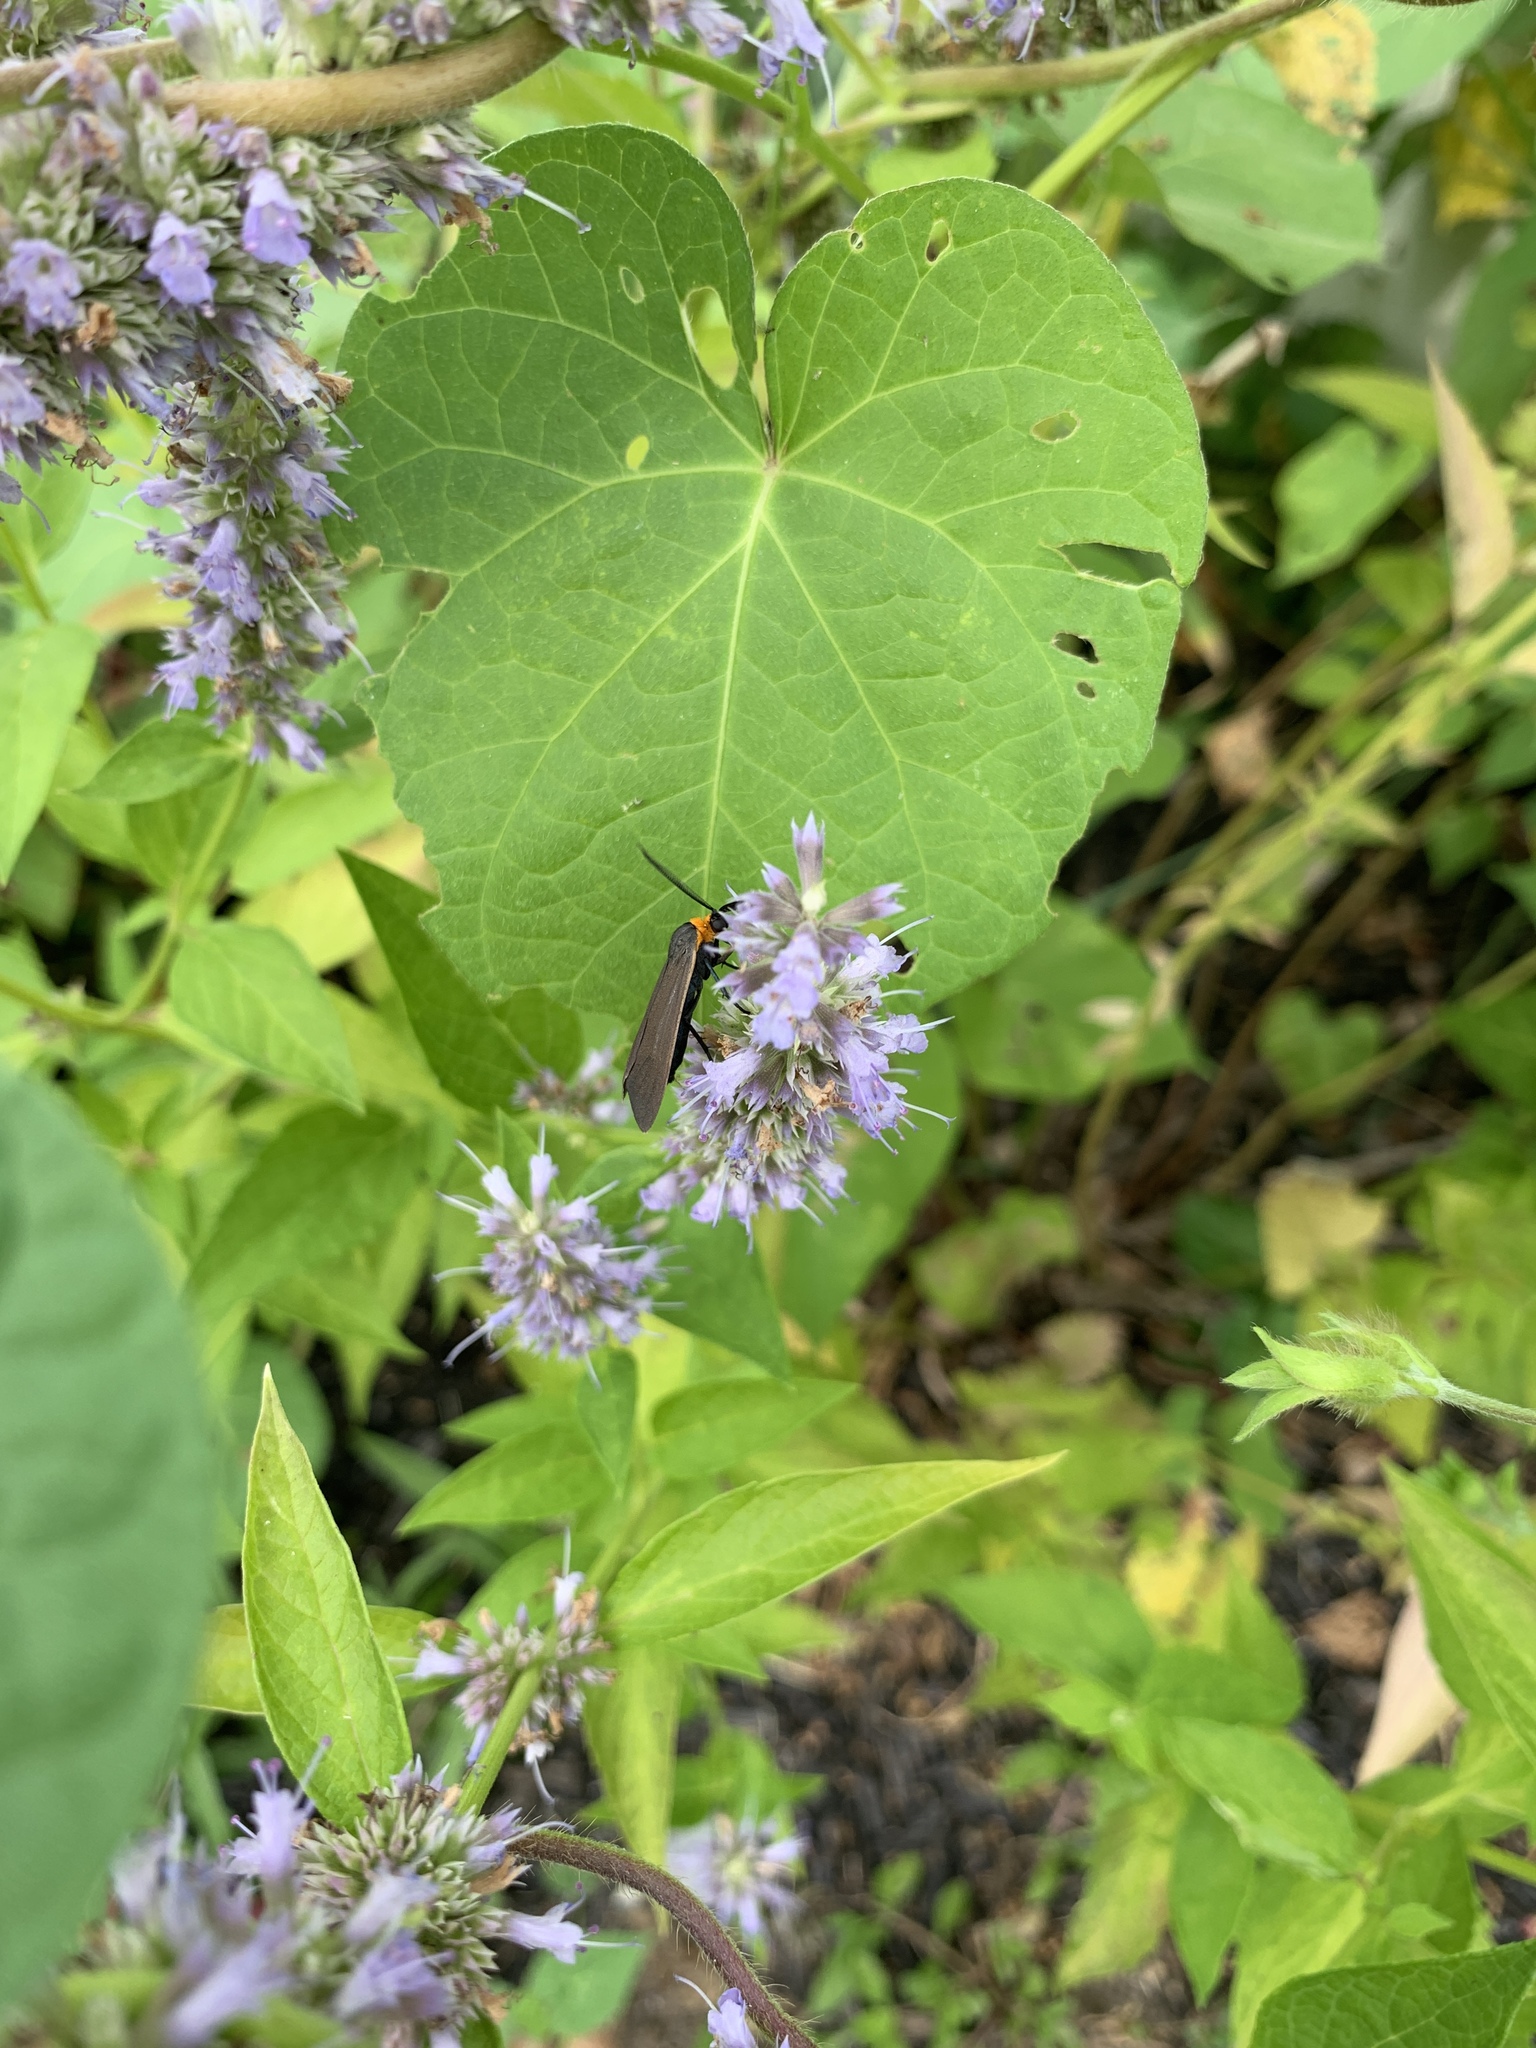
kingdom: Animalia
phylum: Arthropoda
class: Insecta
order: Lepidoptera
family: Erebidae
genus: Cisseps
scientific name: Cisseps fulvicollis
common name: Yellow-collared scape moth
